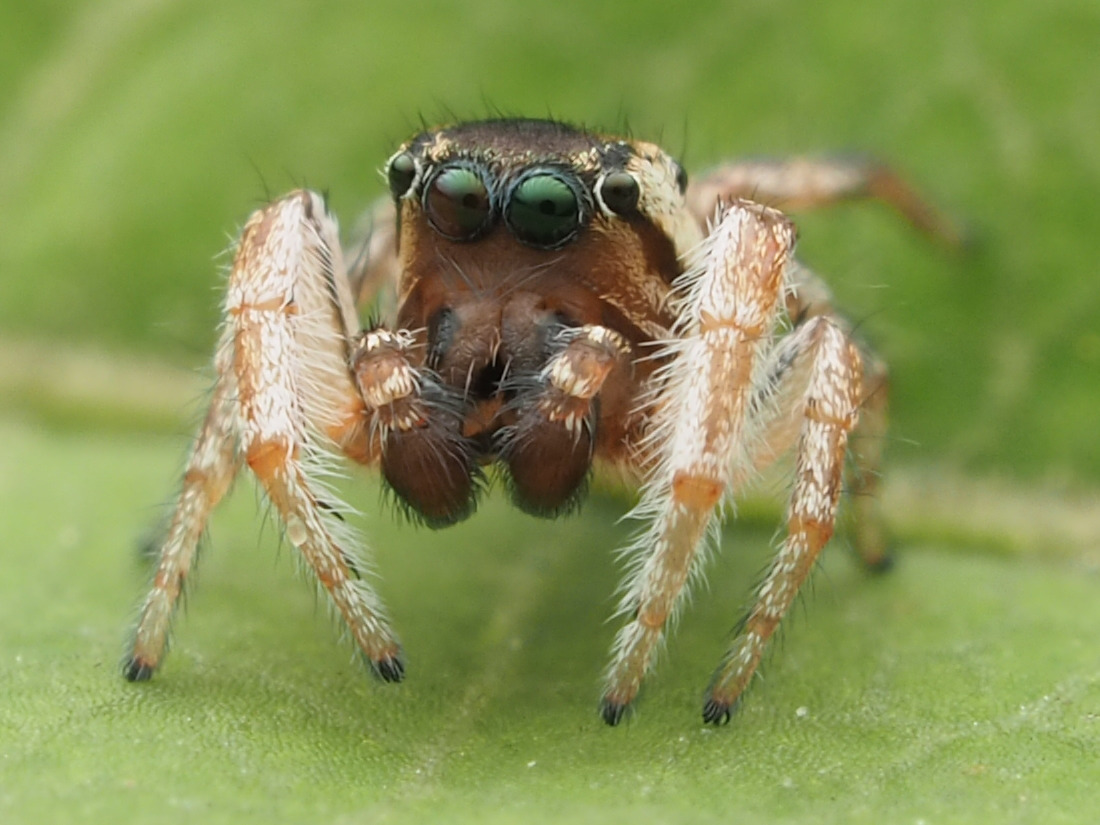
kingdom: Animalia
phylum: Arthropoda
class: Arachnida
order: Araneae
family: Salticidae
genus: Pelegrina
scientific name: Pelegrina flaviceps
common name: Big-headed white-cheeked jumping spider
